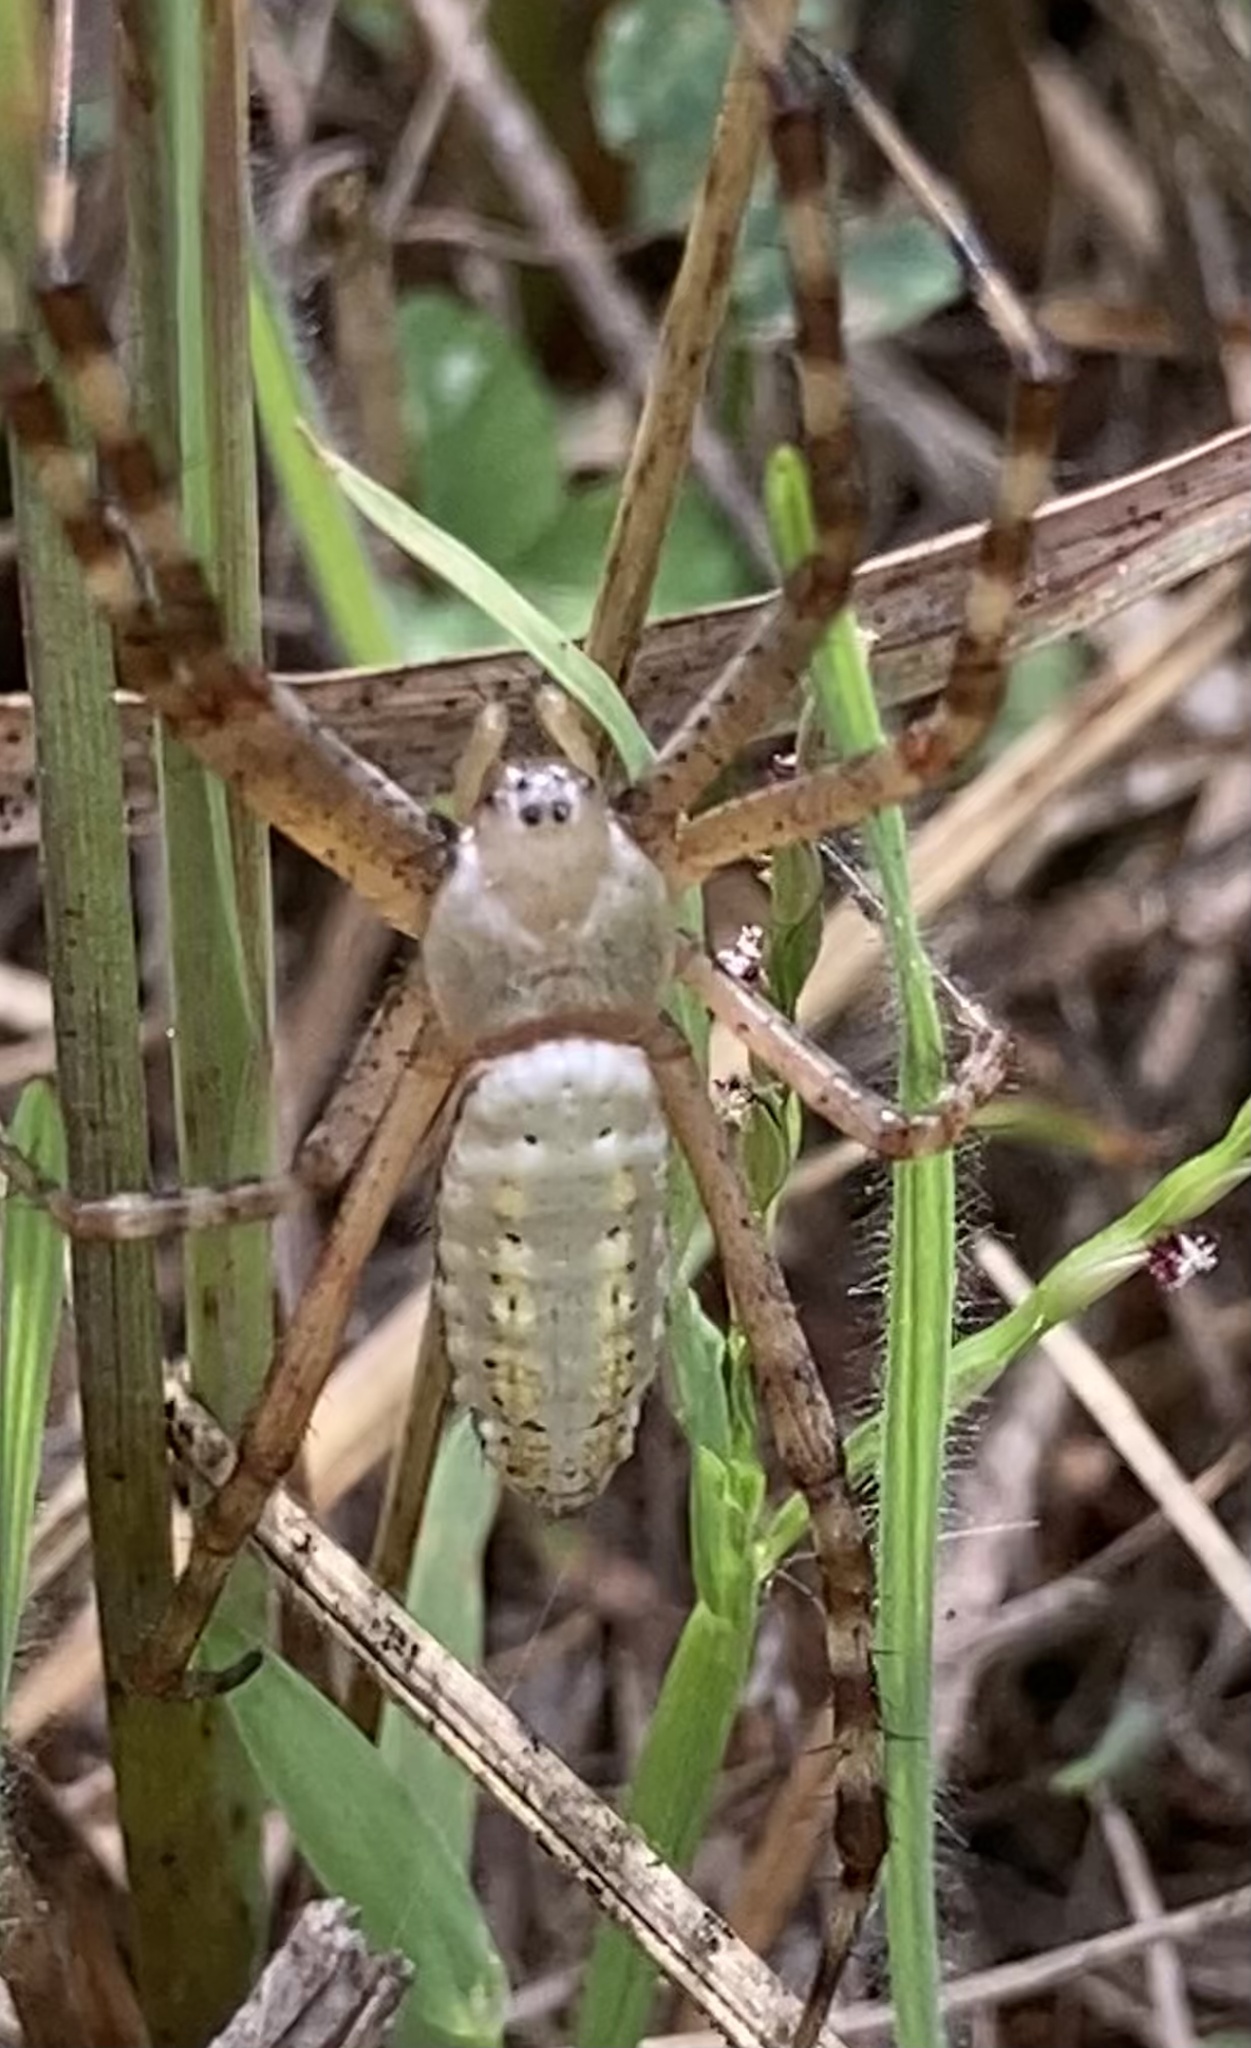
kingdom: Animalia
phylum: Arthropoda
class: Arachnida
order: Araneae
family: Araneidae
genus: Argiope
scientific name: Argiope trifasciata
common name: Banded garden spider
